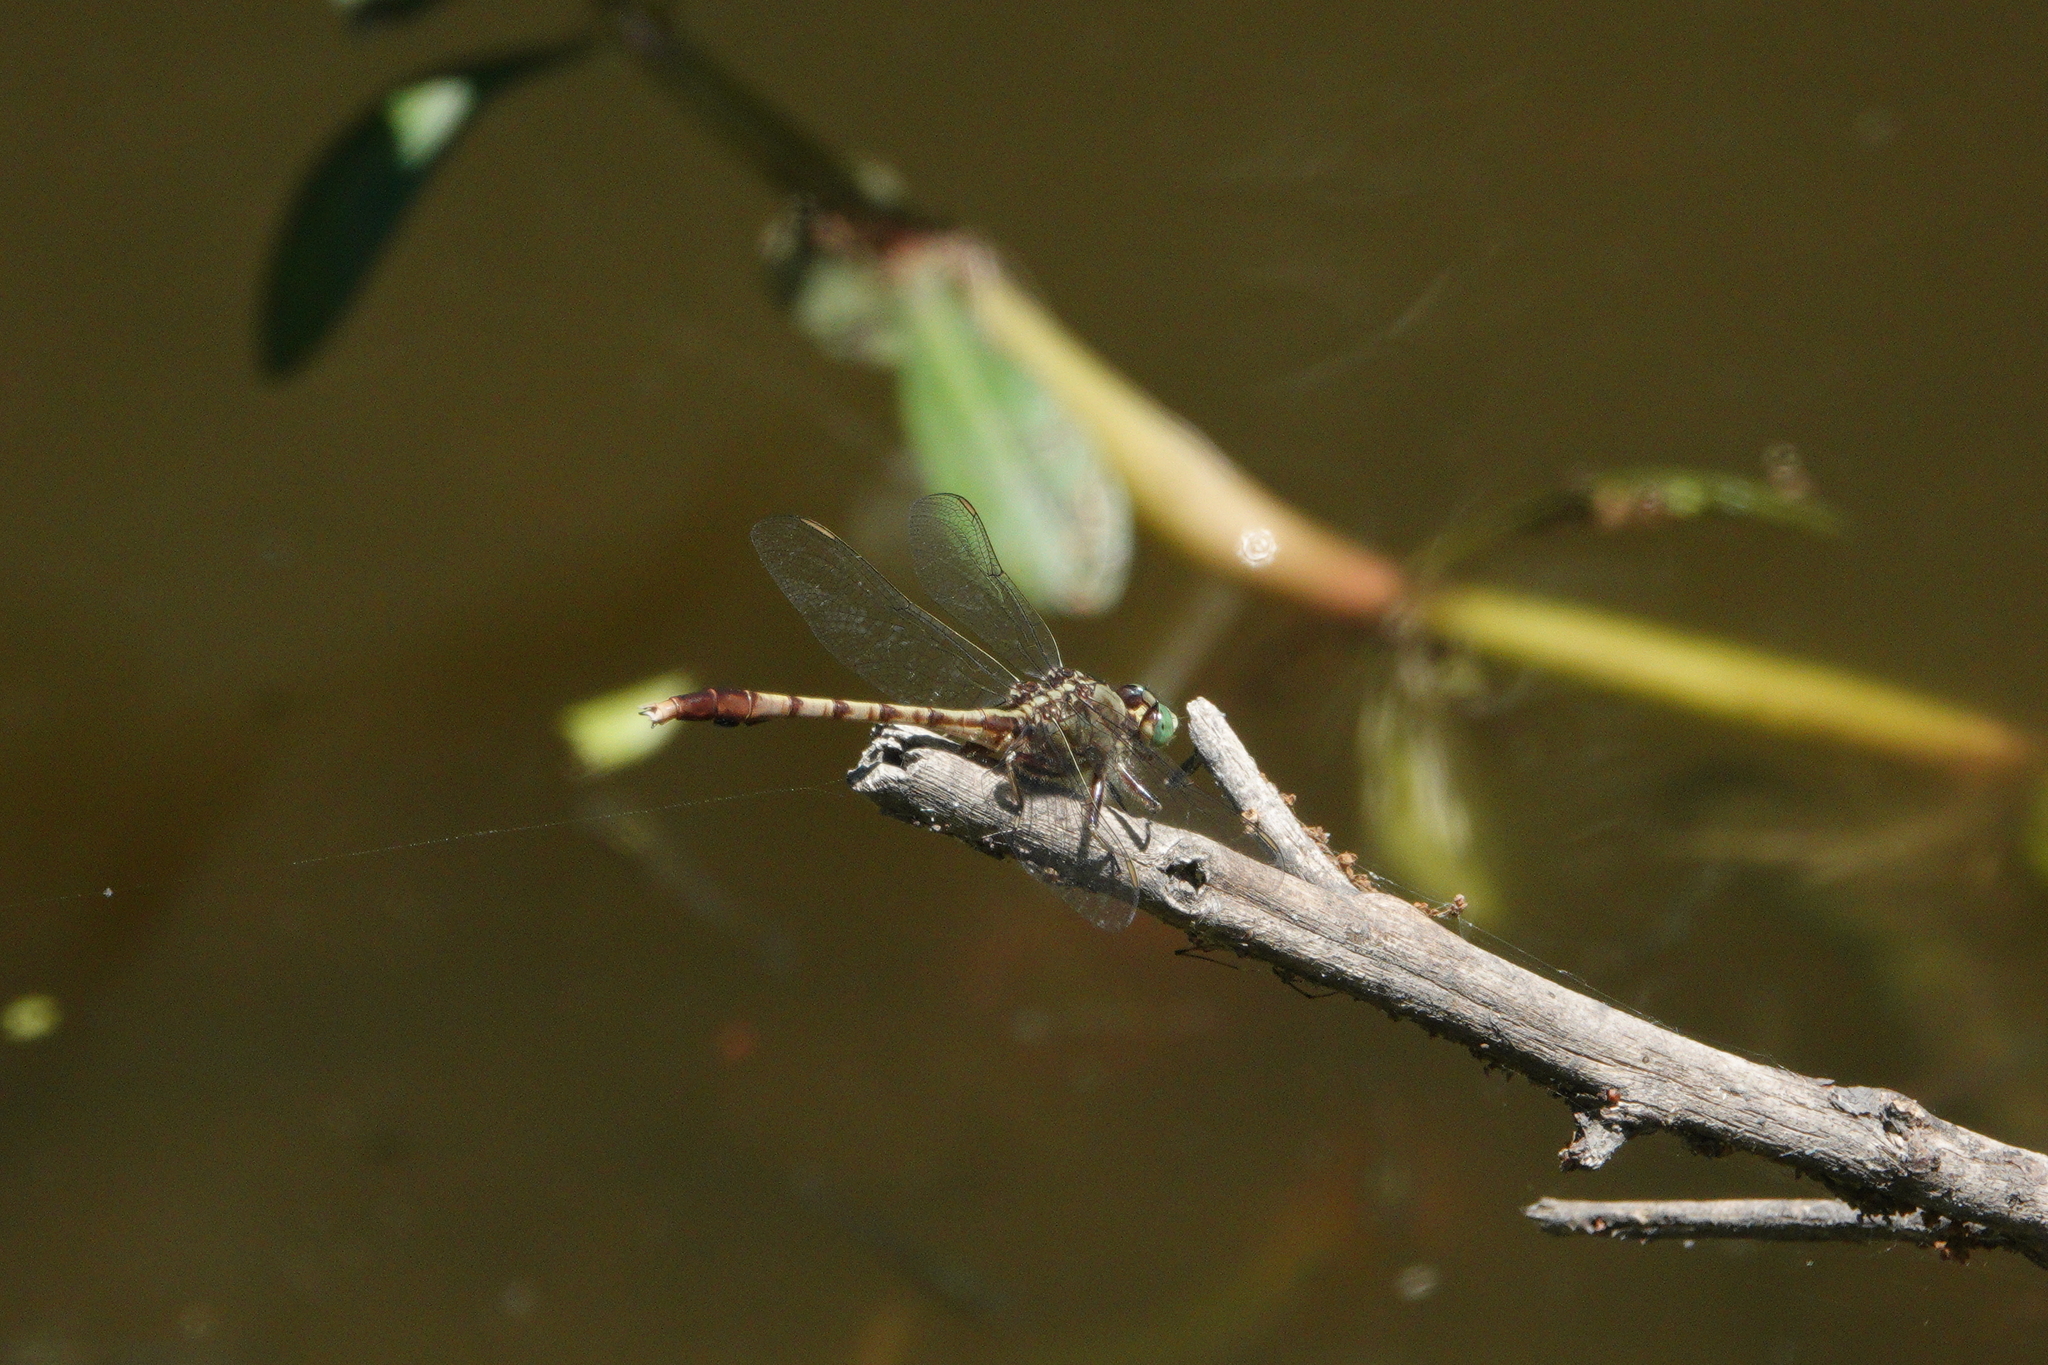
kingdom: Animalia
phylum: Arthropoda
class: Insecta
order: Odonata
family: Gomphidae
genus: Arigomphus
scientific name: Arigomphus pallidus
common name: Gray-green clubtail
